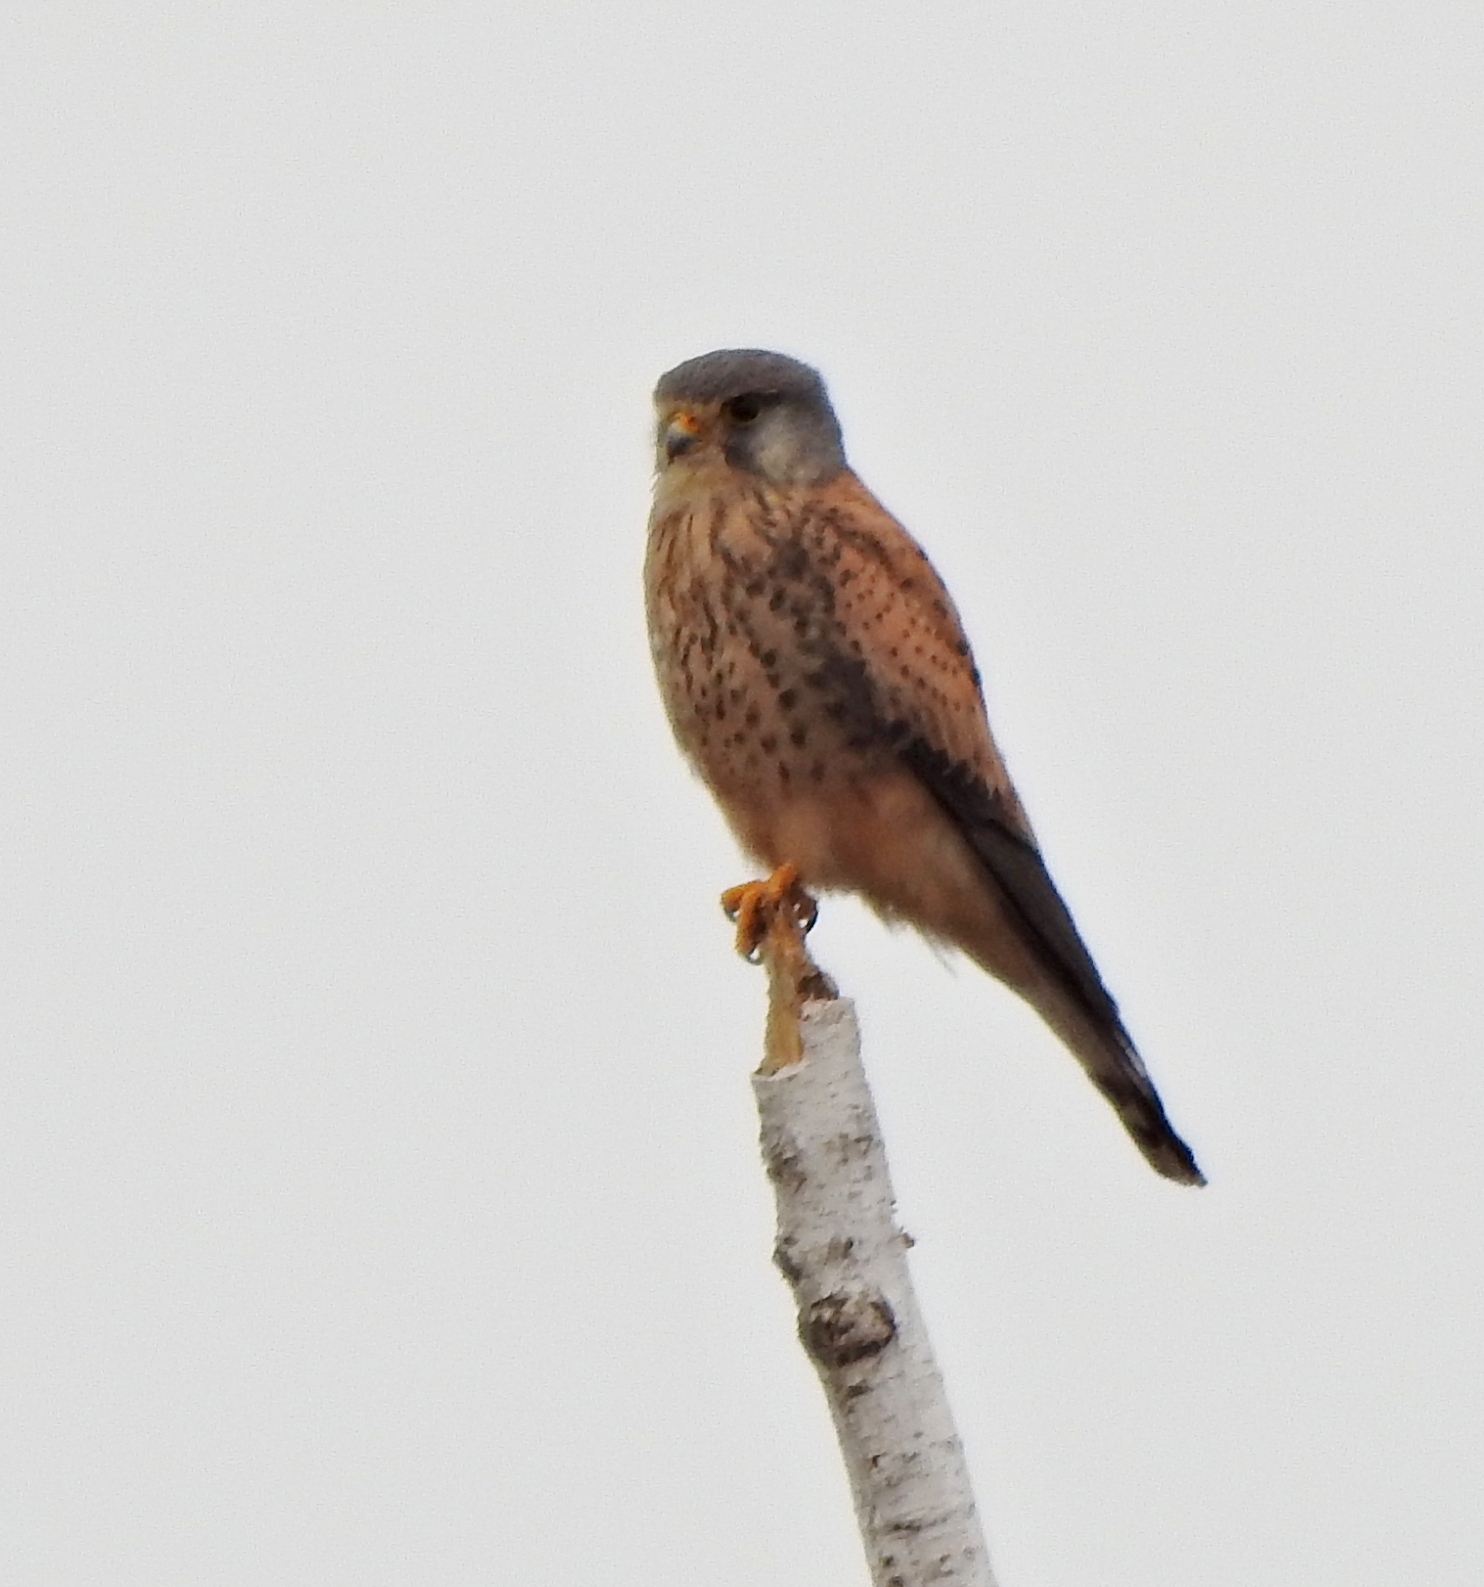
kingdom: Animalia
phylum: Chordata
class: Aves
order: Falconiformes
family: Falconidae
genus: Falco
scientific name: Falco tinnunculus
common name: Common kestrel
